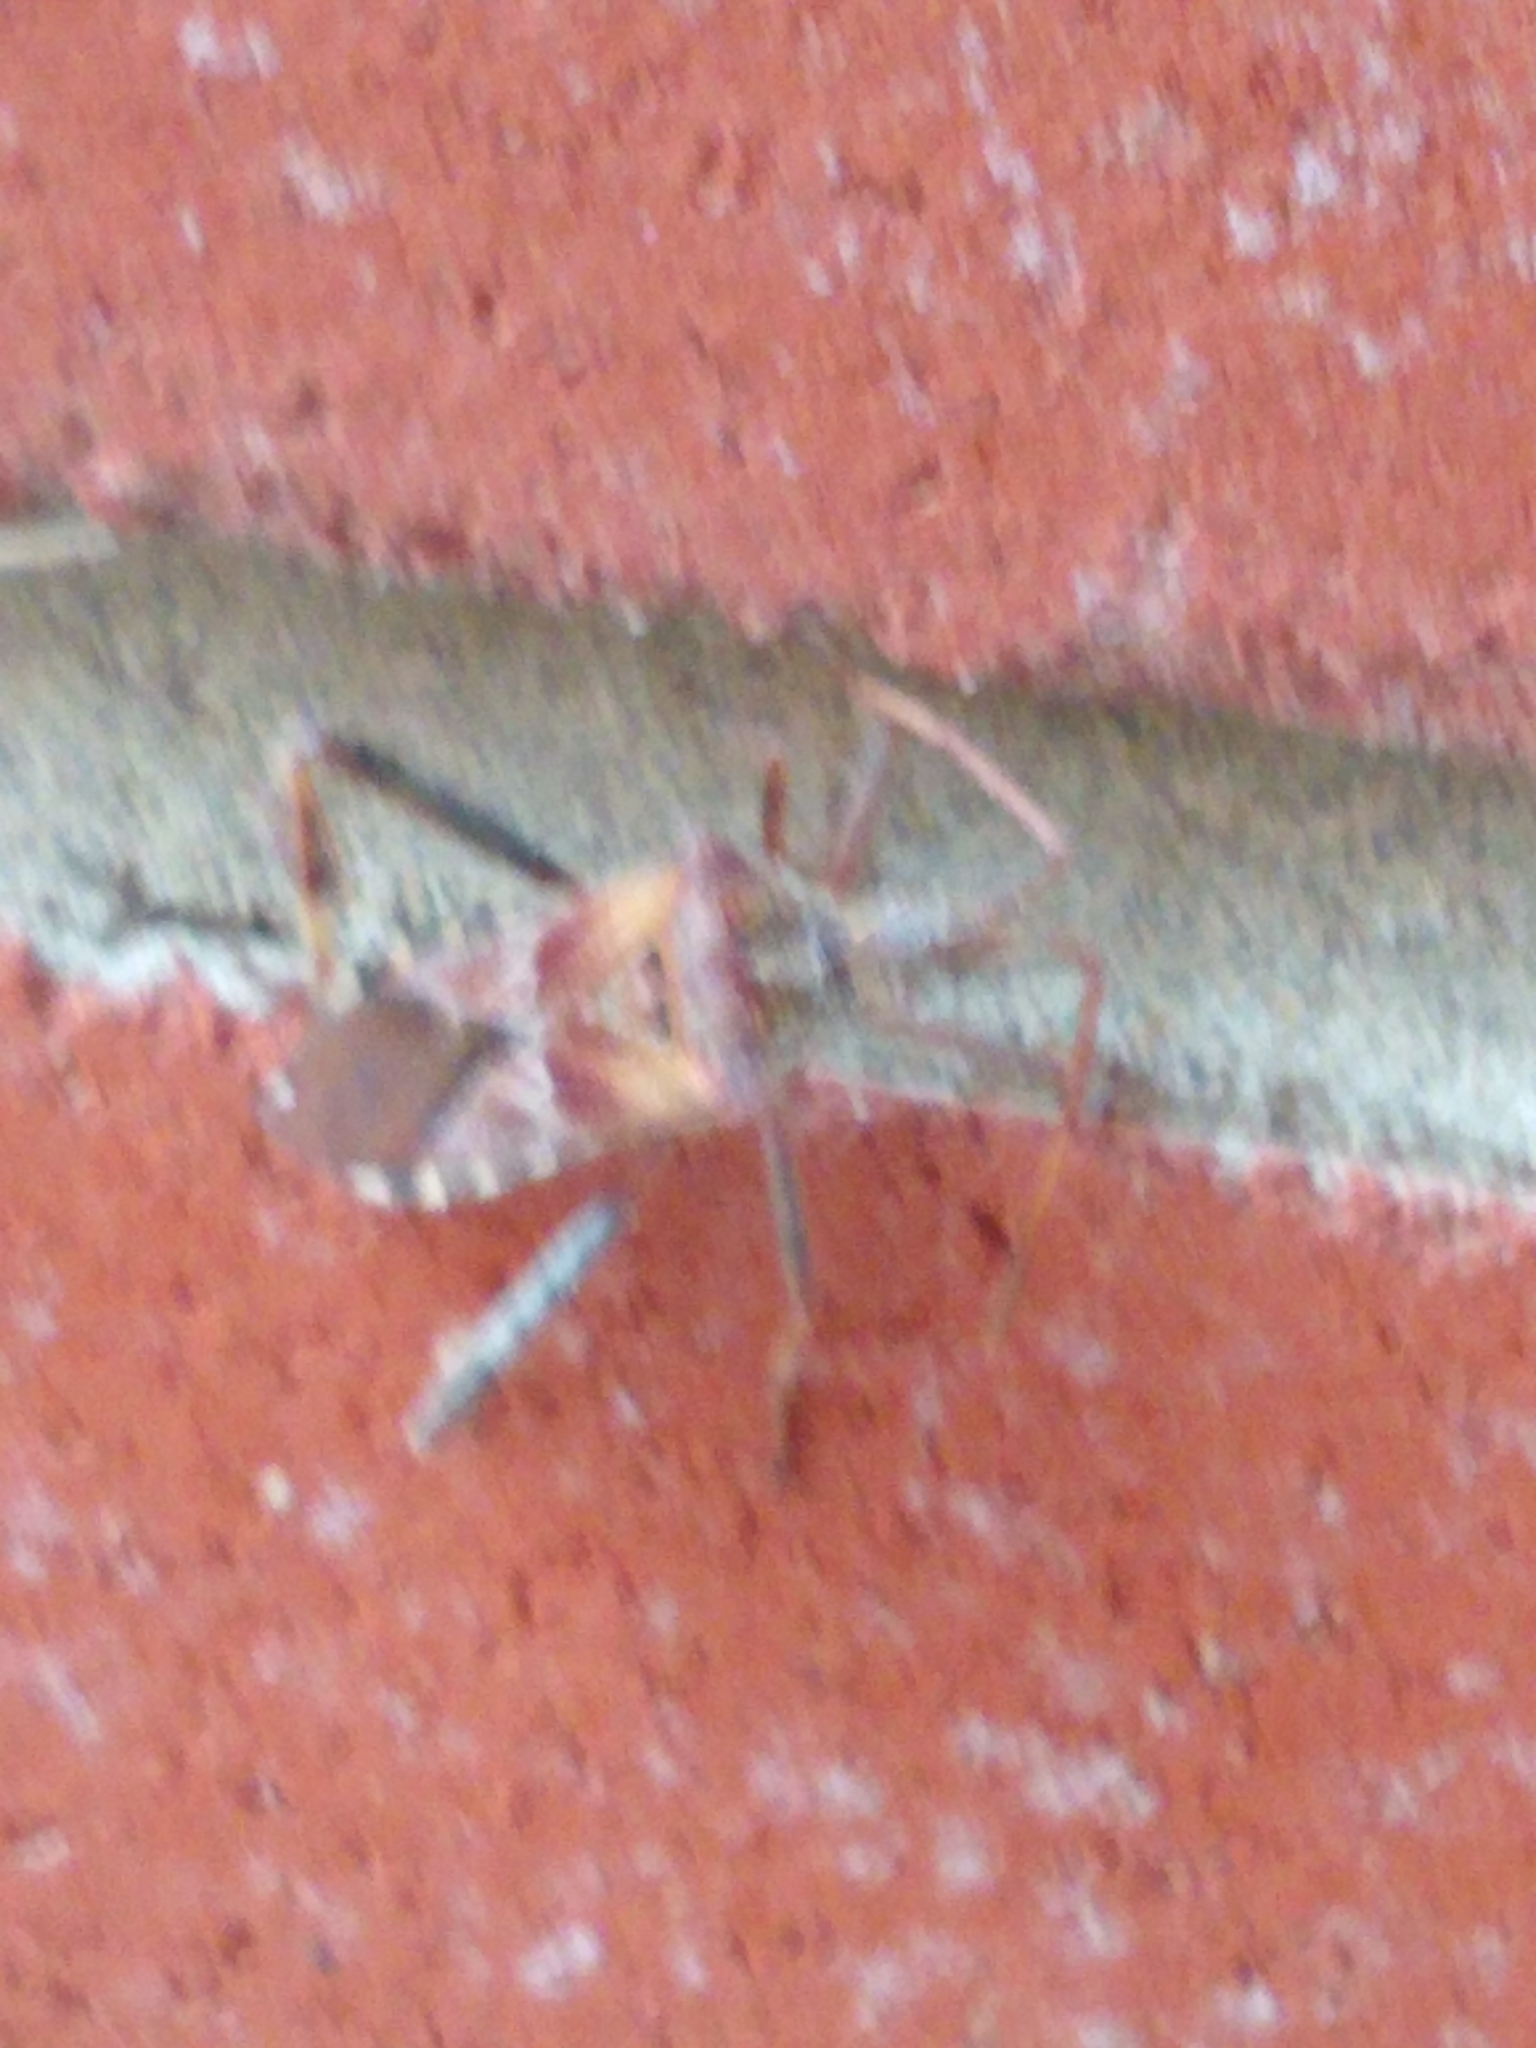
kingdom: Animalia
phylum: Arthropoda
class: Insecta
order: Hemiptera
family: Coreidae
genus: Leptoglossus
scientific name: Leptoglossus occidentalis
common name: Western conifer-seed bug
